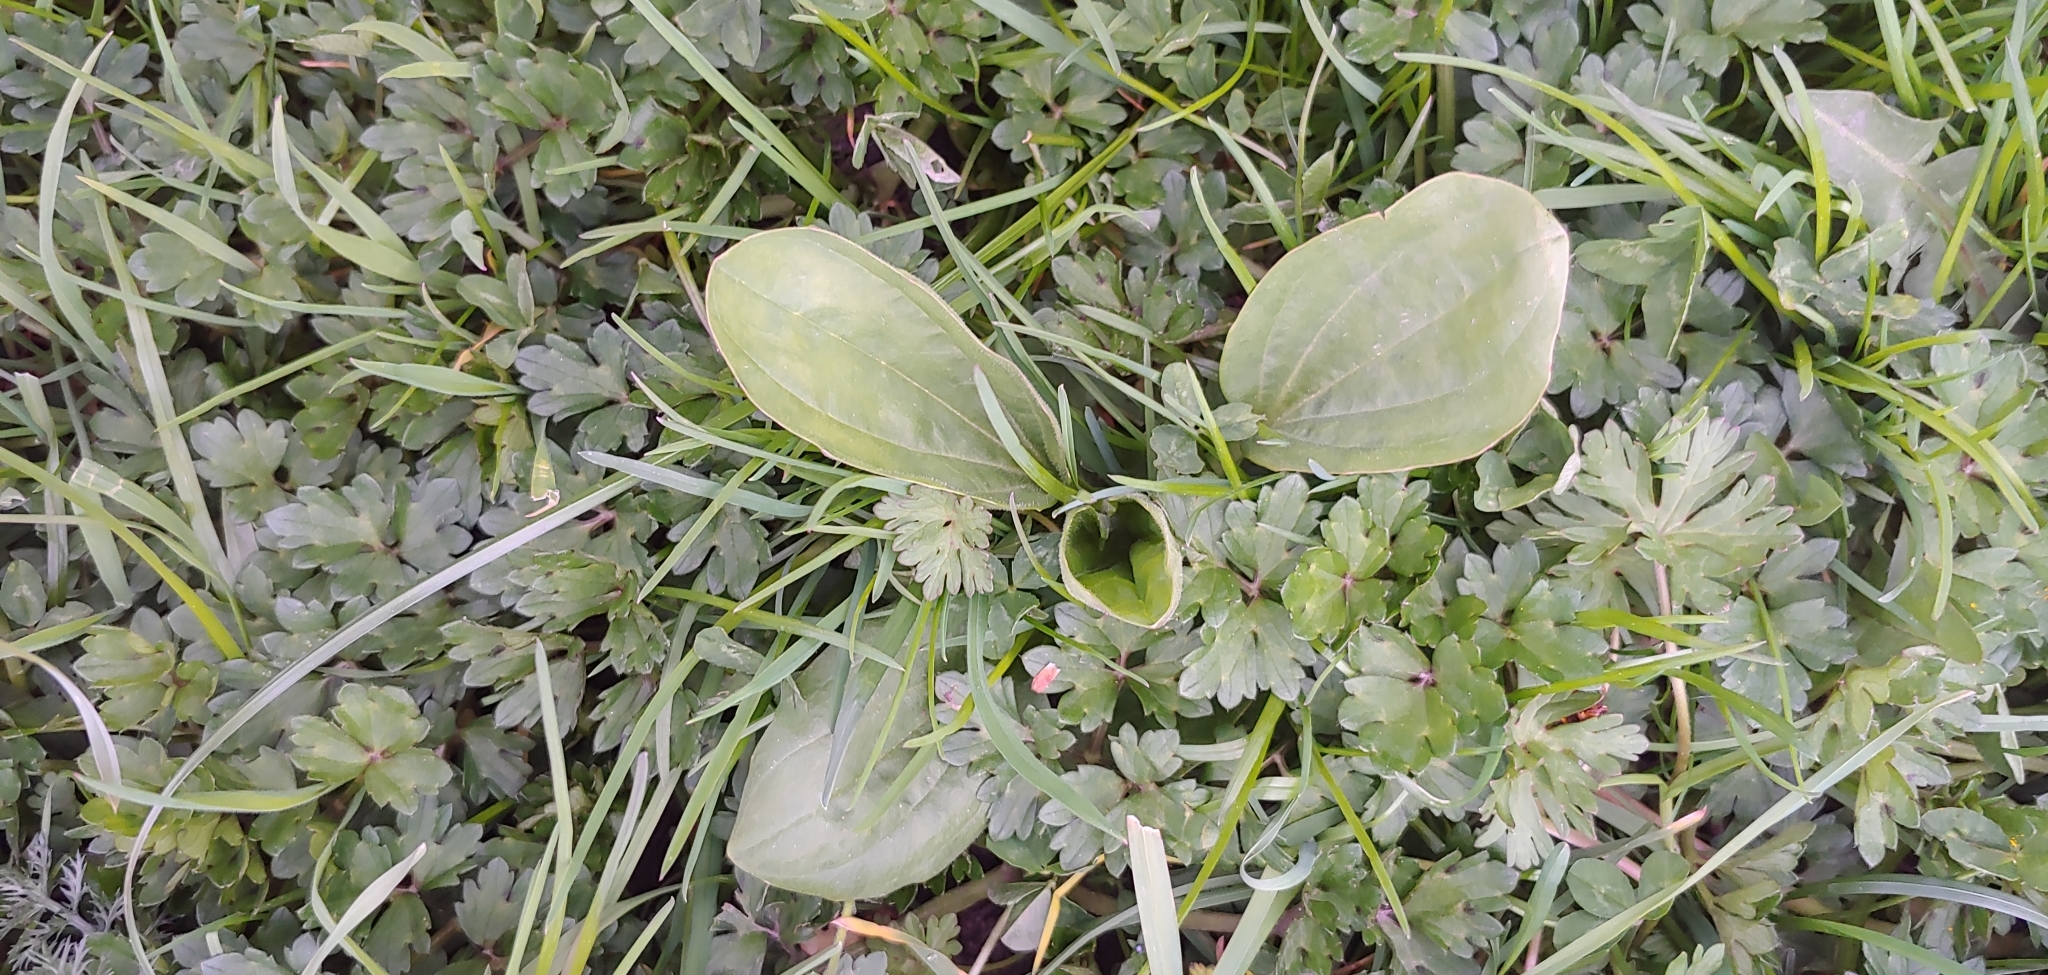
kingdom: Plantae
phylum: Tracheophyta
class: Magnoliopsida
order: Lamiales
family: Plantaginaceae
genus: Plantago
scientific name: Plantago major
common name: Common plantain
